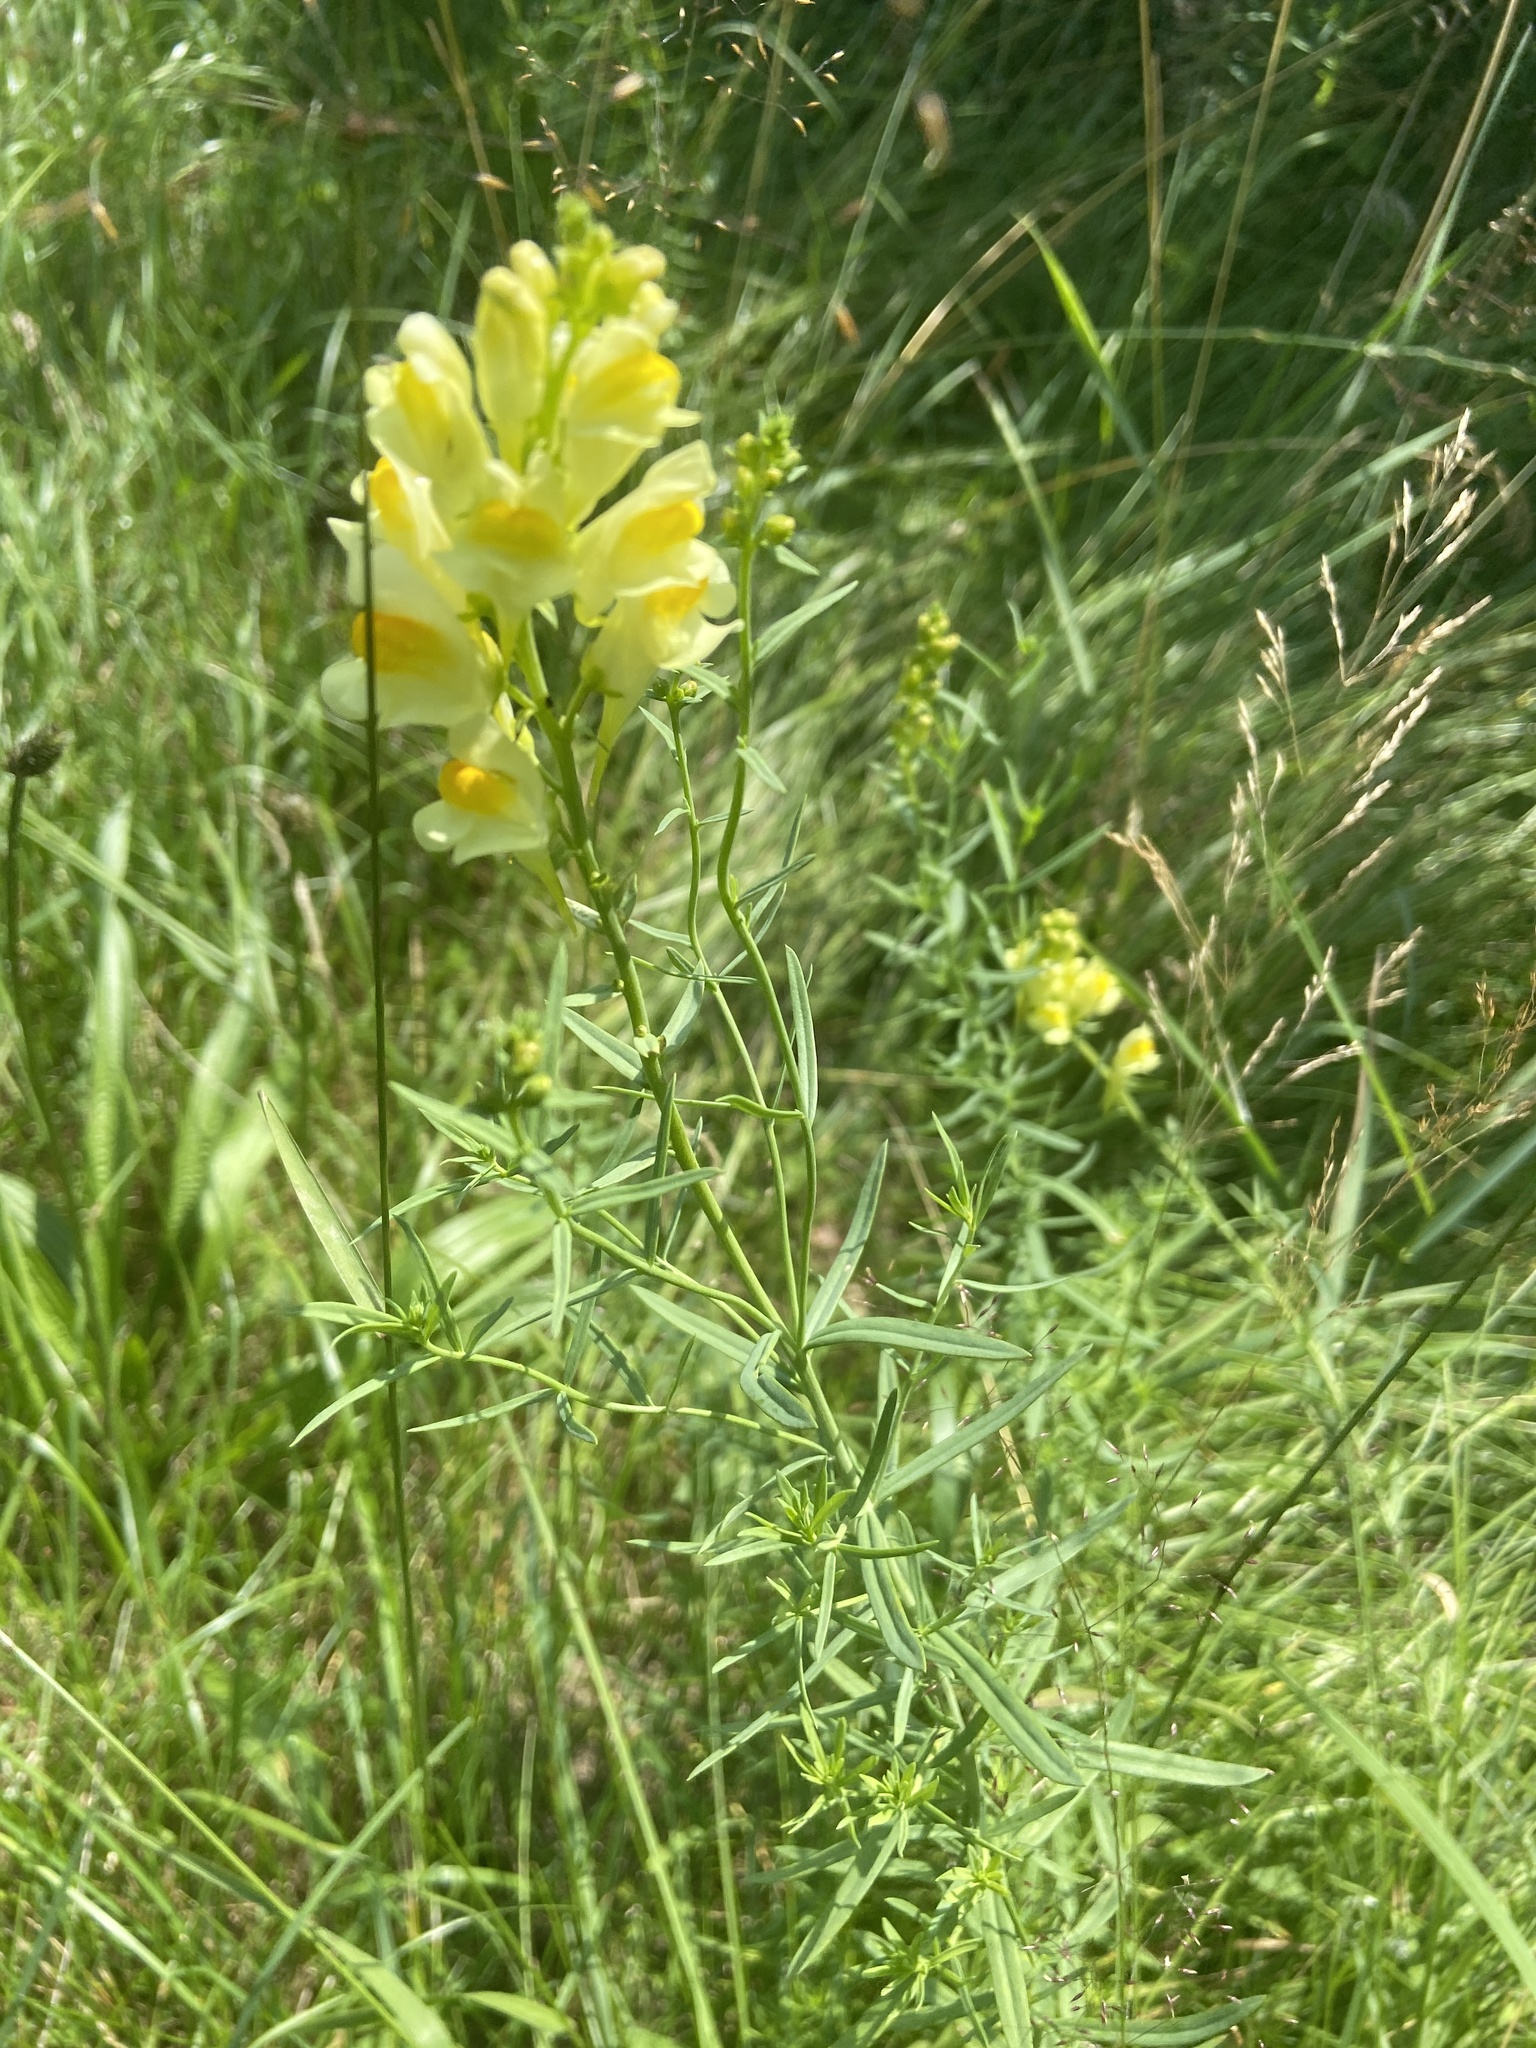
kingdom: Plantae
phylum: Tracheophyta
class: Magnoliopsida
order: Lamiales
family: Plantaginaceae
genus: Linaria
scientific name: Linaria vulgaris
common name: Butter and eggs
